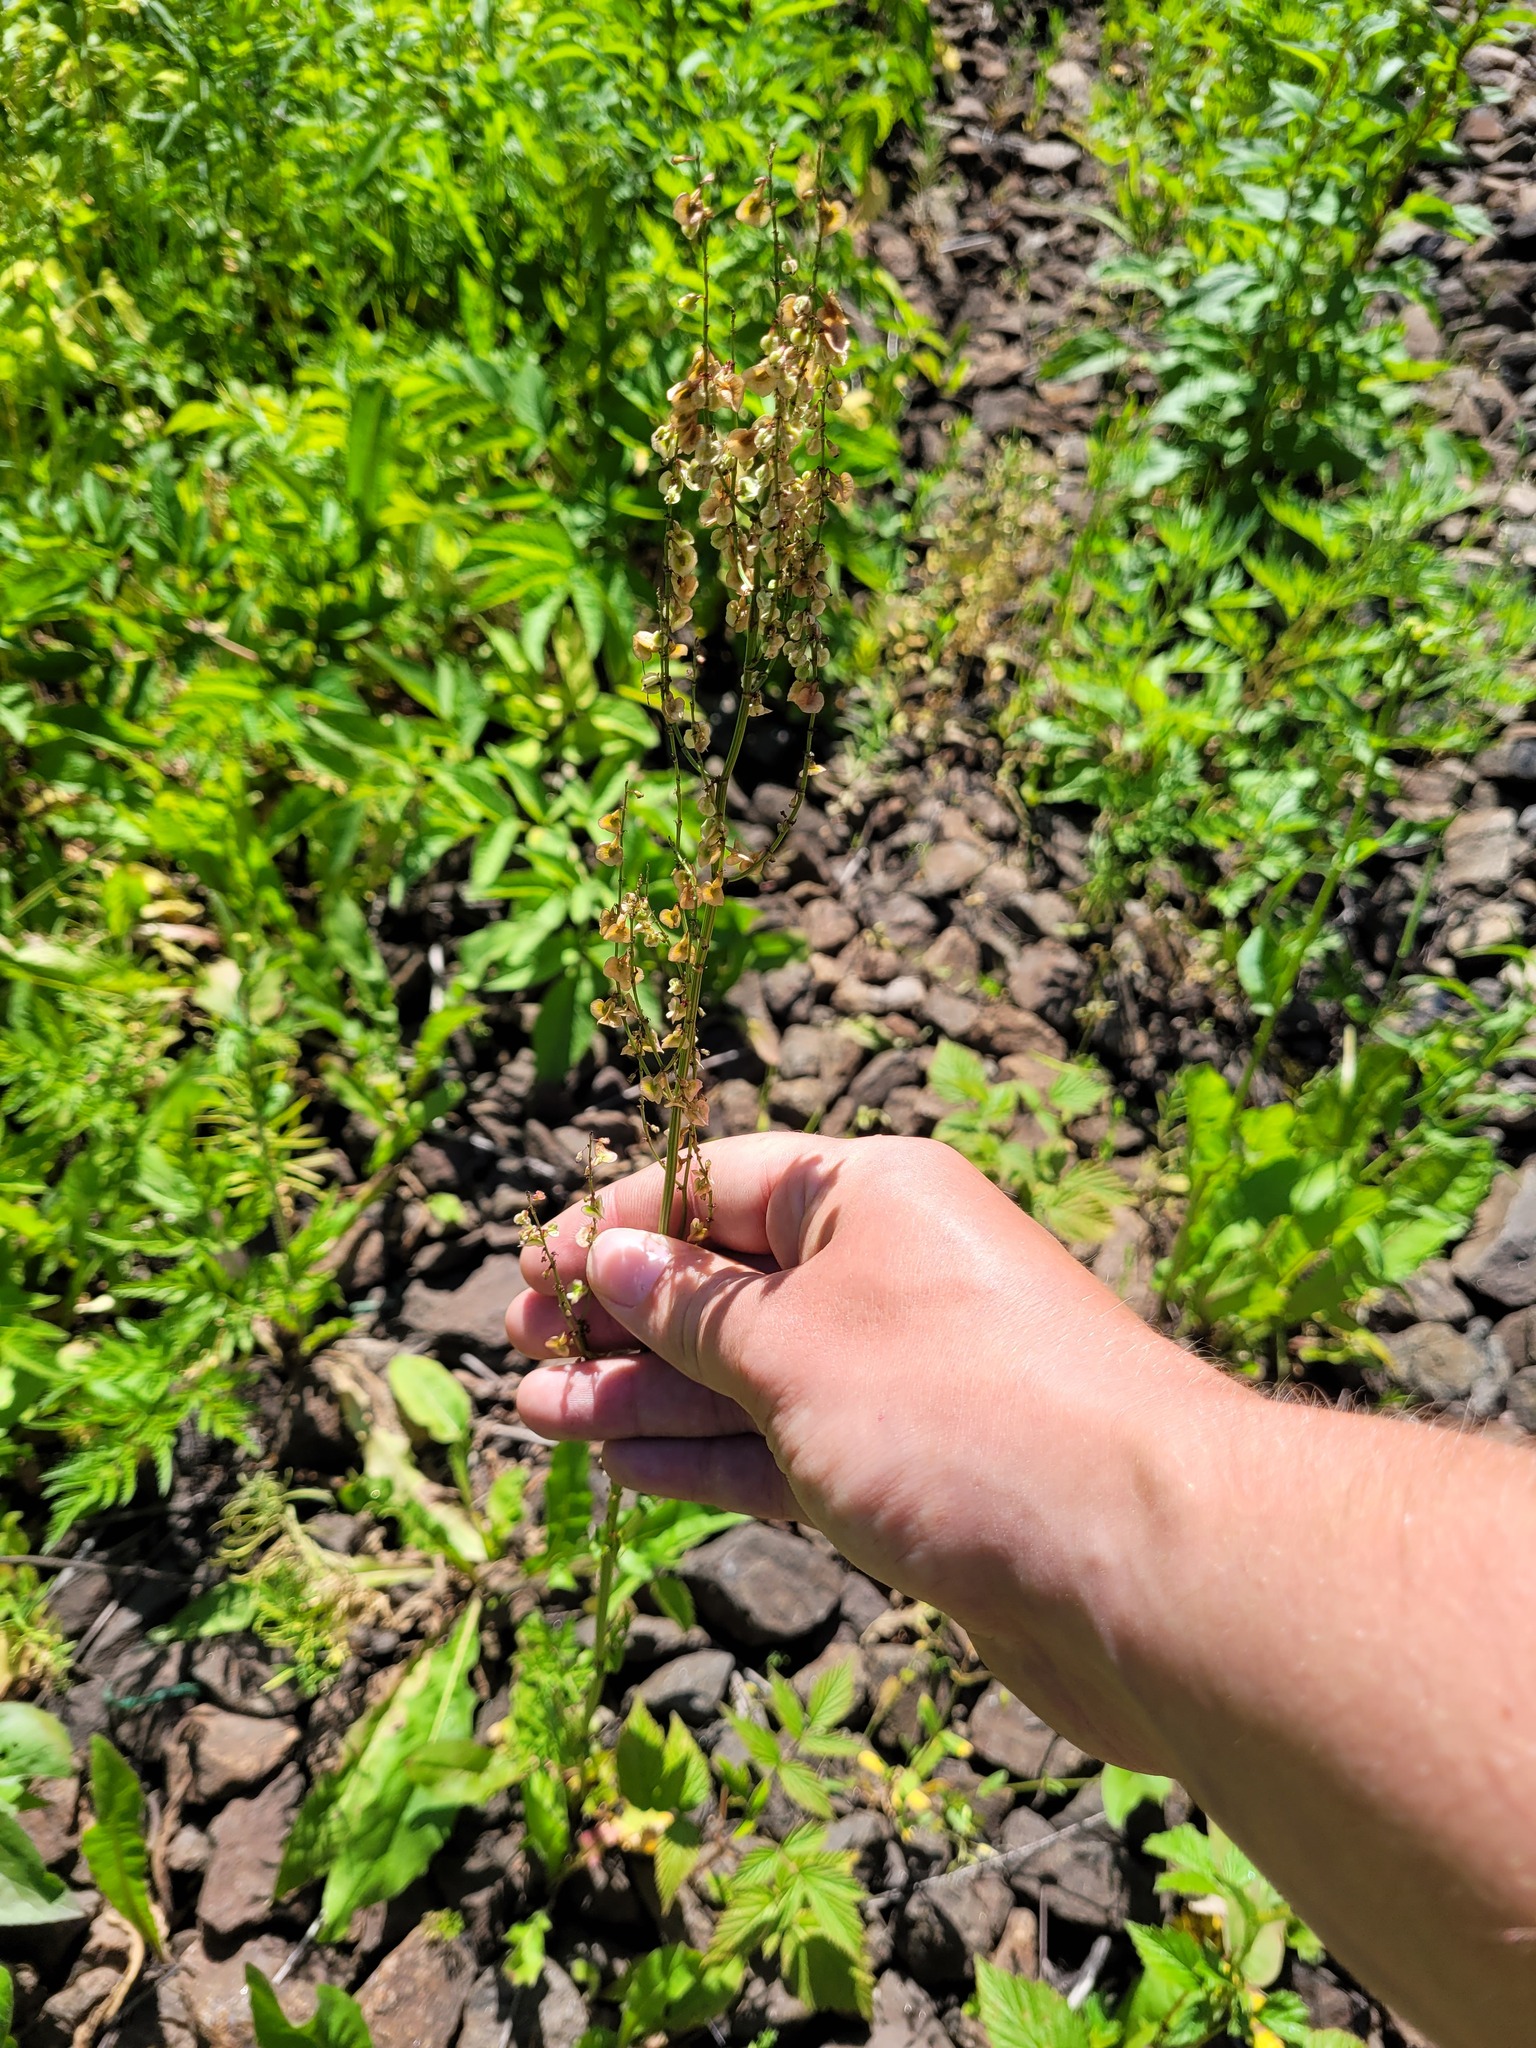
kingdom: Plantae
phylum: Tracheophyta
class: Magnoliopsida
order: Caryophyllales
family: Polygonaceae
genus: Rumex
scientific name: Rumex acetosa
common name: Garden sorrel
